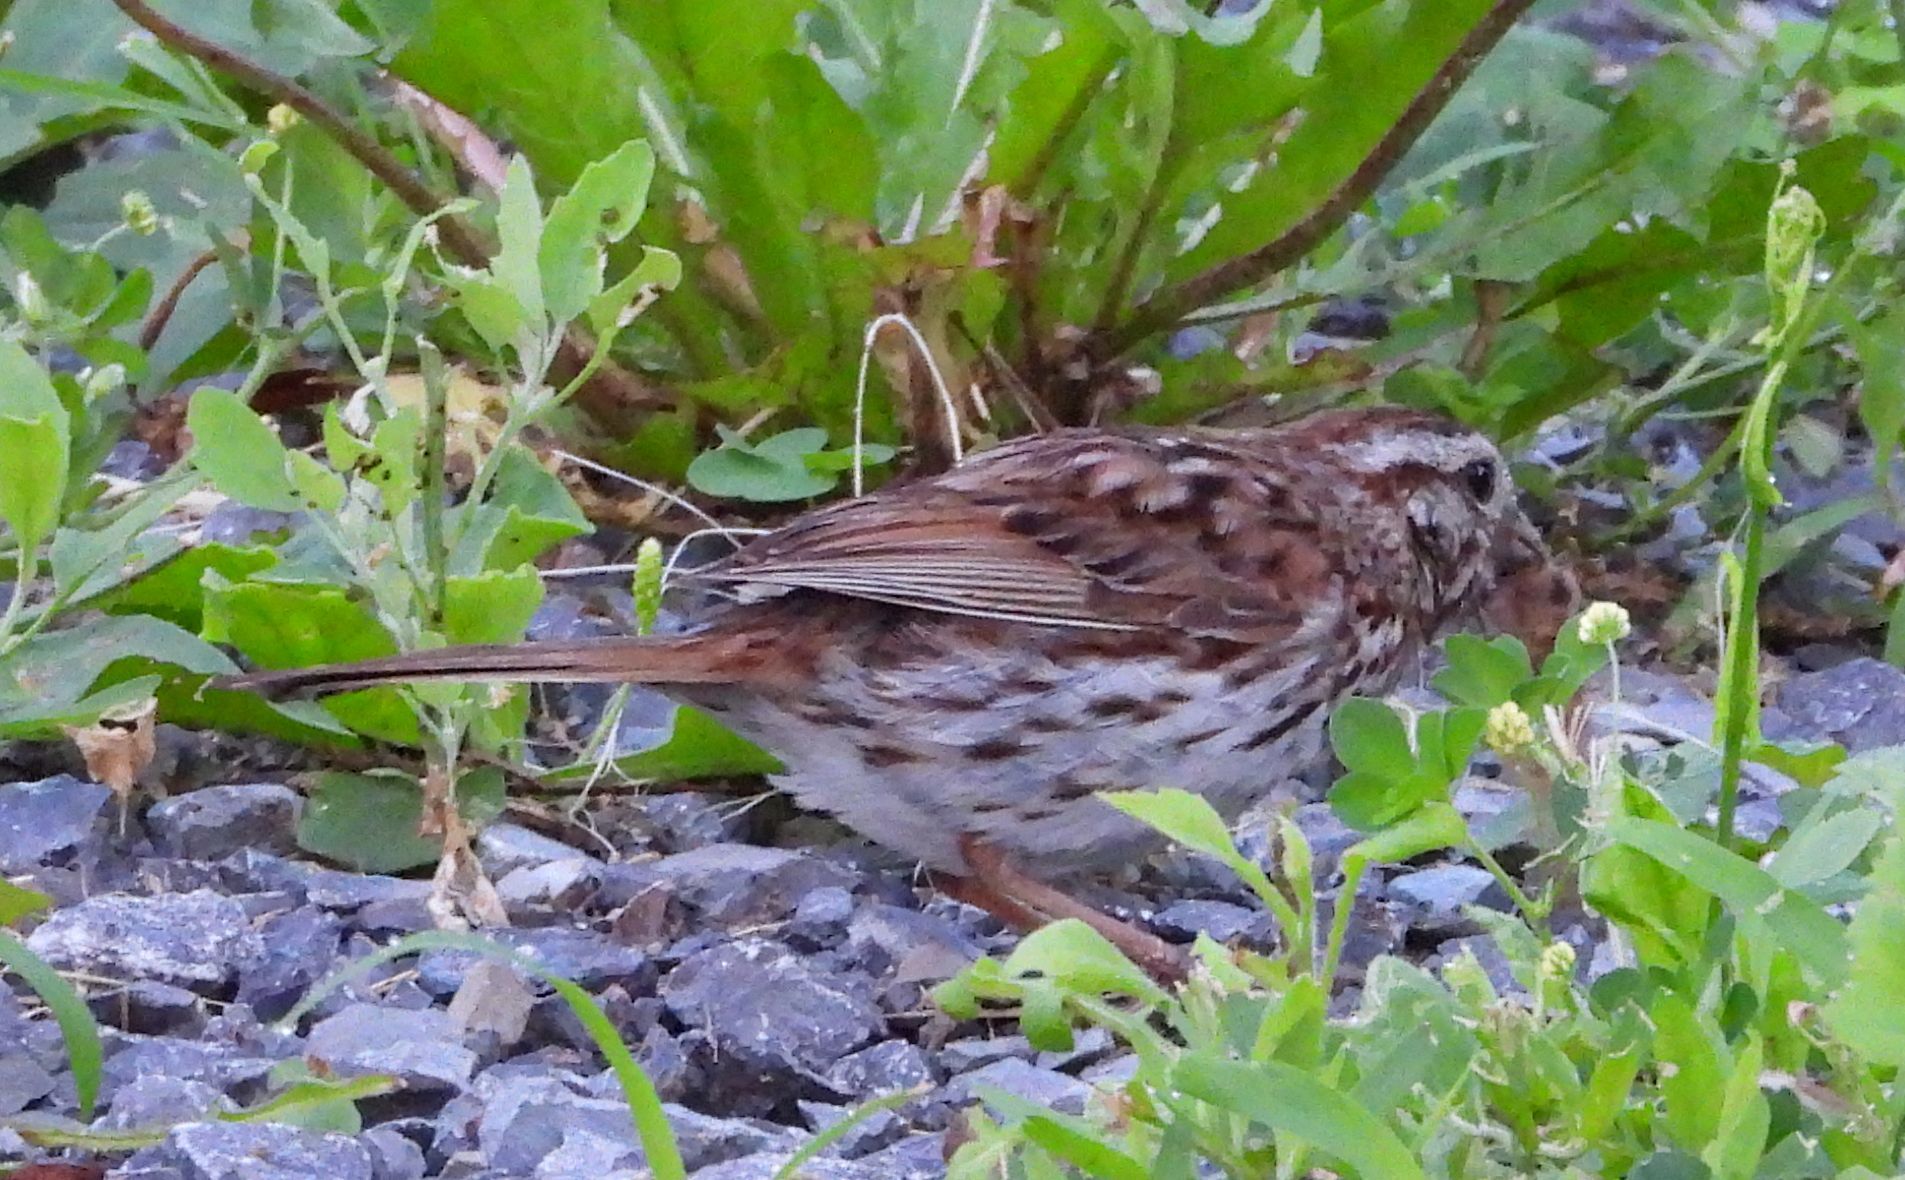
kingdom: Animalia
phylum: Chordata
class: Aves
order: Passeriformes
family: Passerellidae
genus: Melospiza
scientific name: Melospiza melodia
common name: Song sparrow
